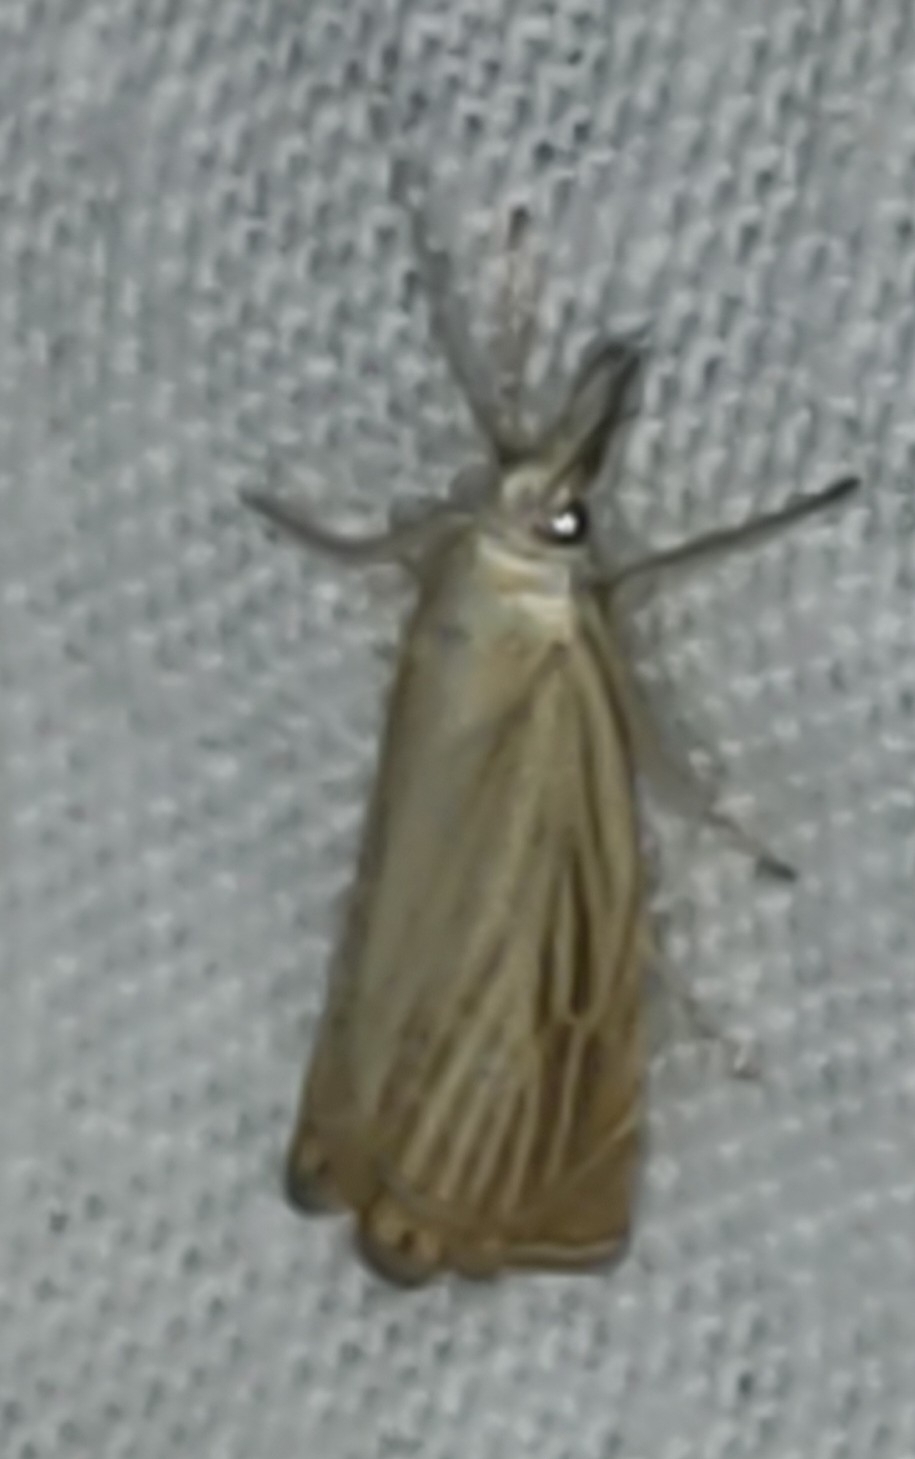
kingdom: Animalia
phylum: Arthropoda
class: Insecta
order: Lepidoptera
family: Crambidae
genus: Chrysoteuchia
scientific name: Chrysoteuchia culmella
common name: Garden grass-veneer
